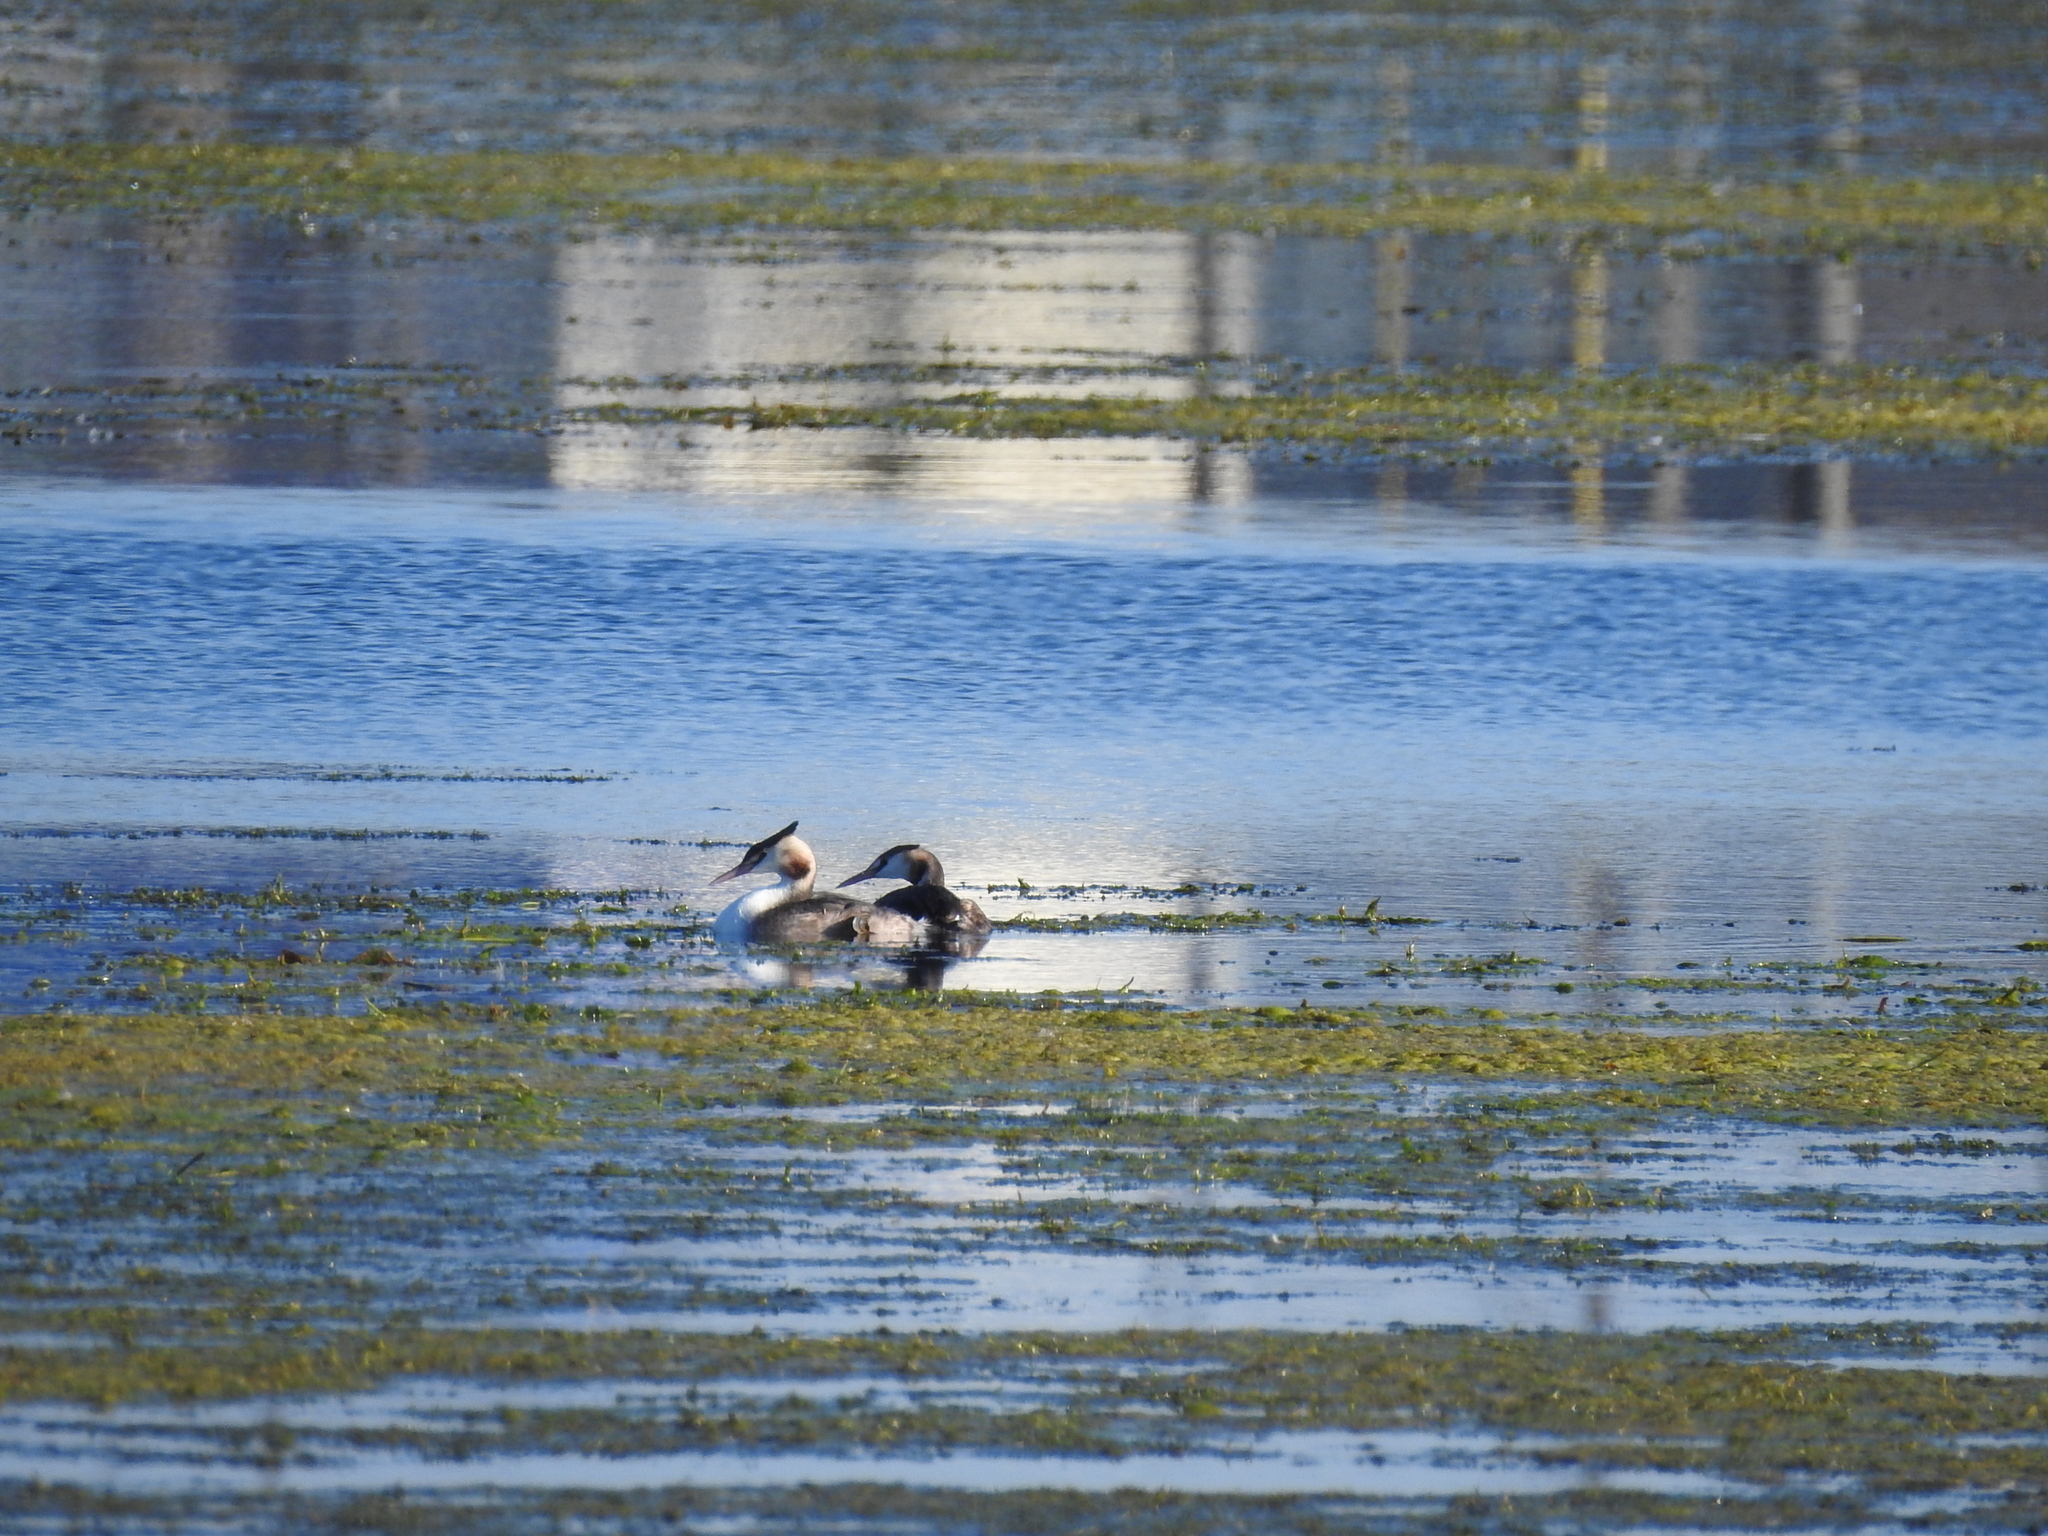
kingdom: Animalia
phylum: Chordata
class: Aves
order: Podicipediformes
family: Podicipedidae
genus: Podiceps
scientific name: Podiceps cristatus
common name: Great crested grebe
